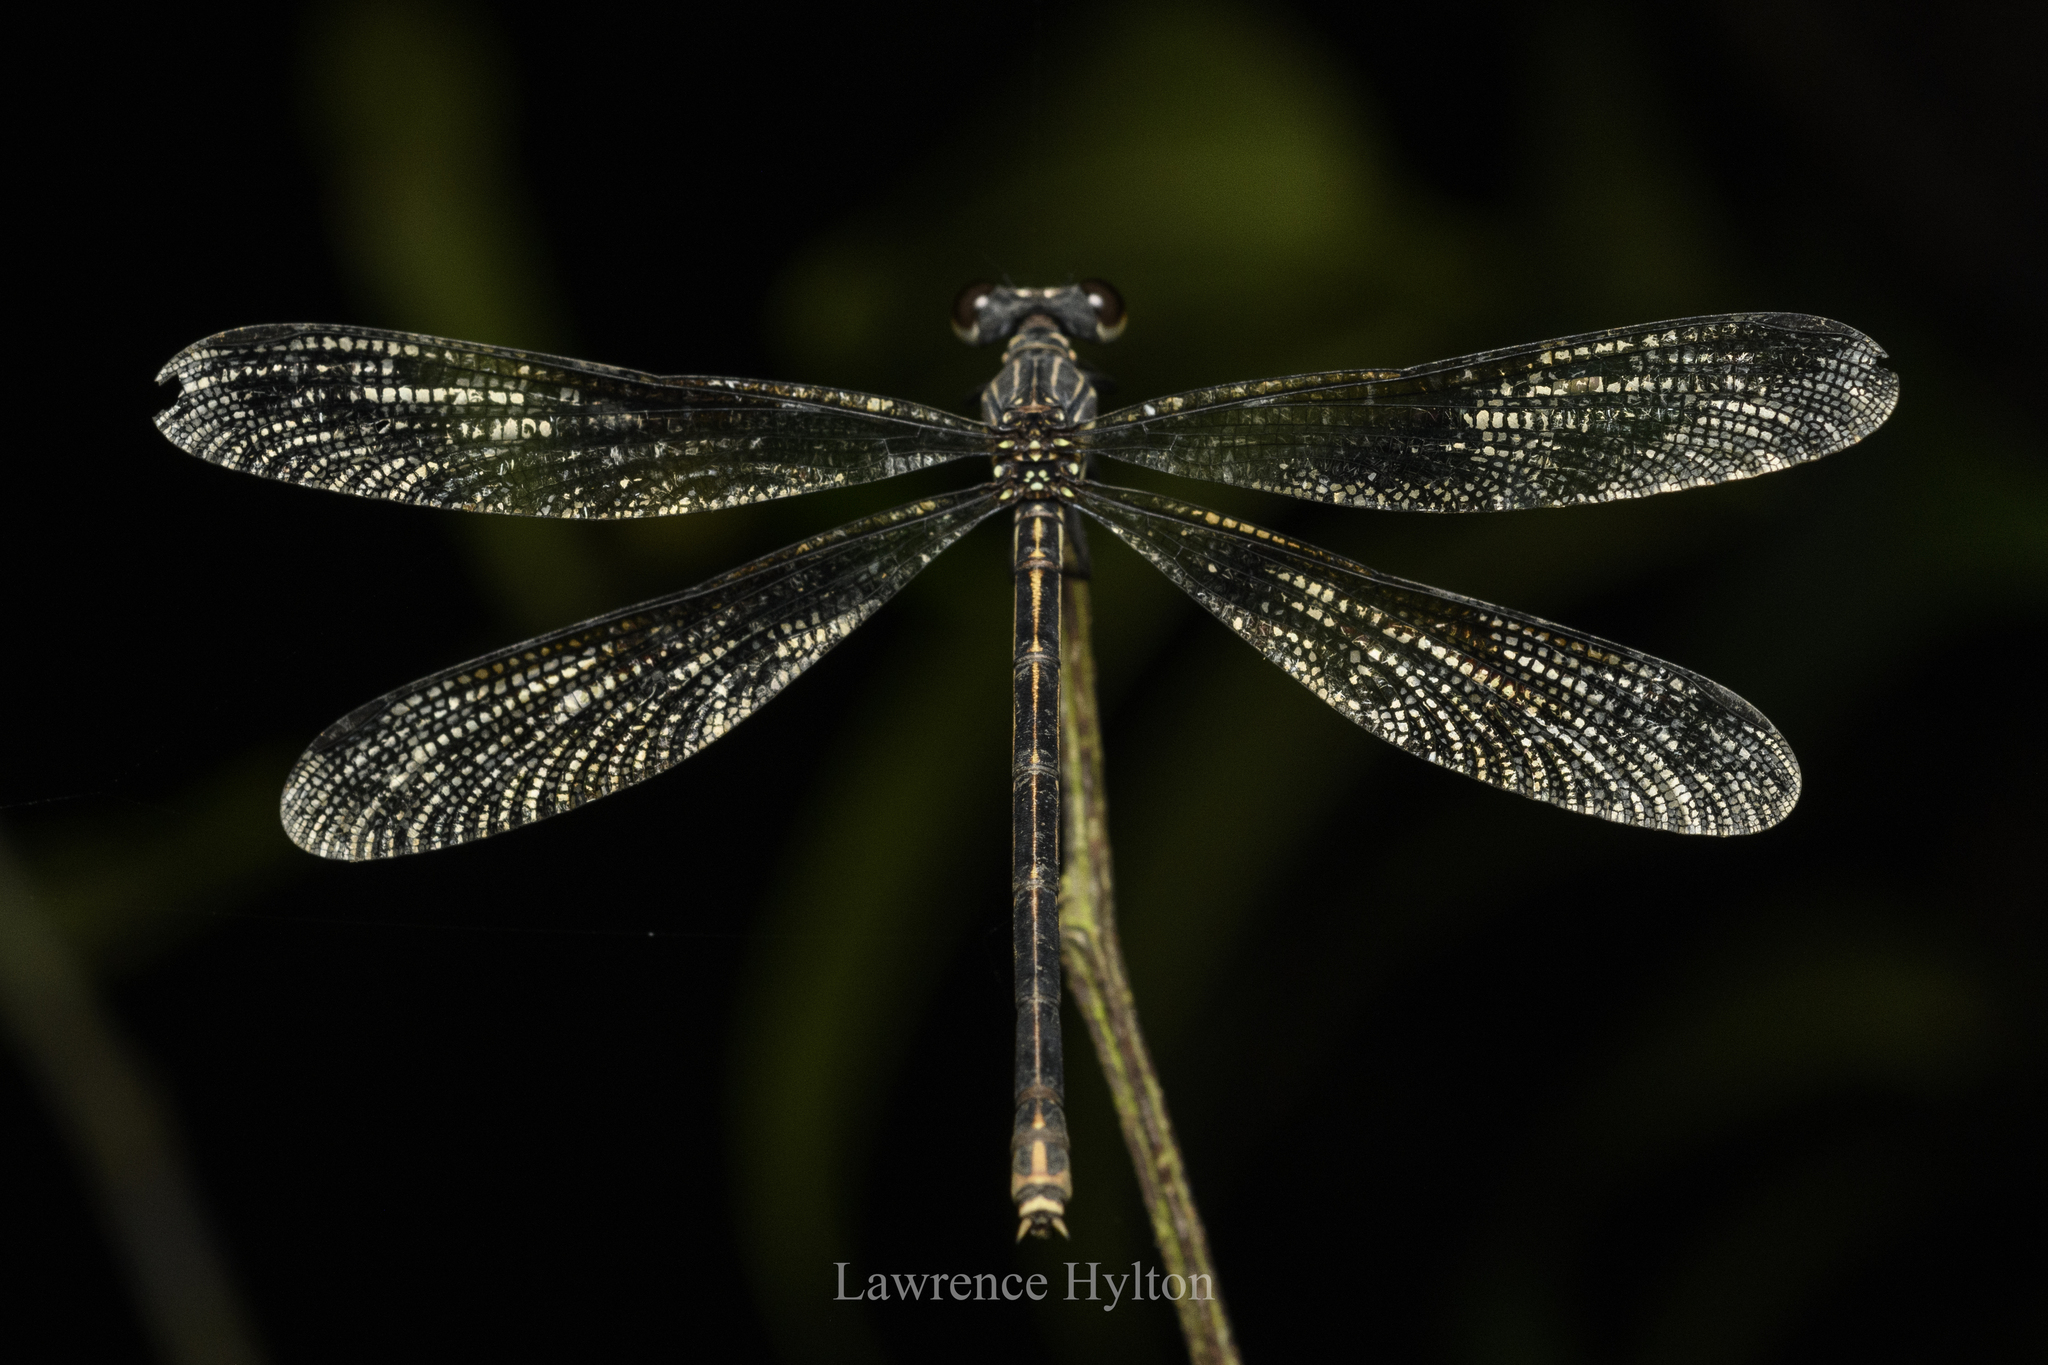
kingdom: Animalia
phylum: Arthropoda
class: Insecta
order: Odonata
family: Euphaeidae
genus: Euphaea
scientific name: Euphaea decorata
